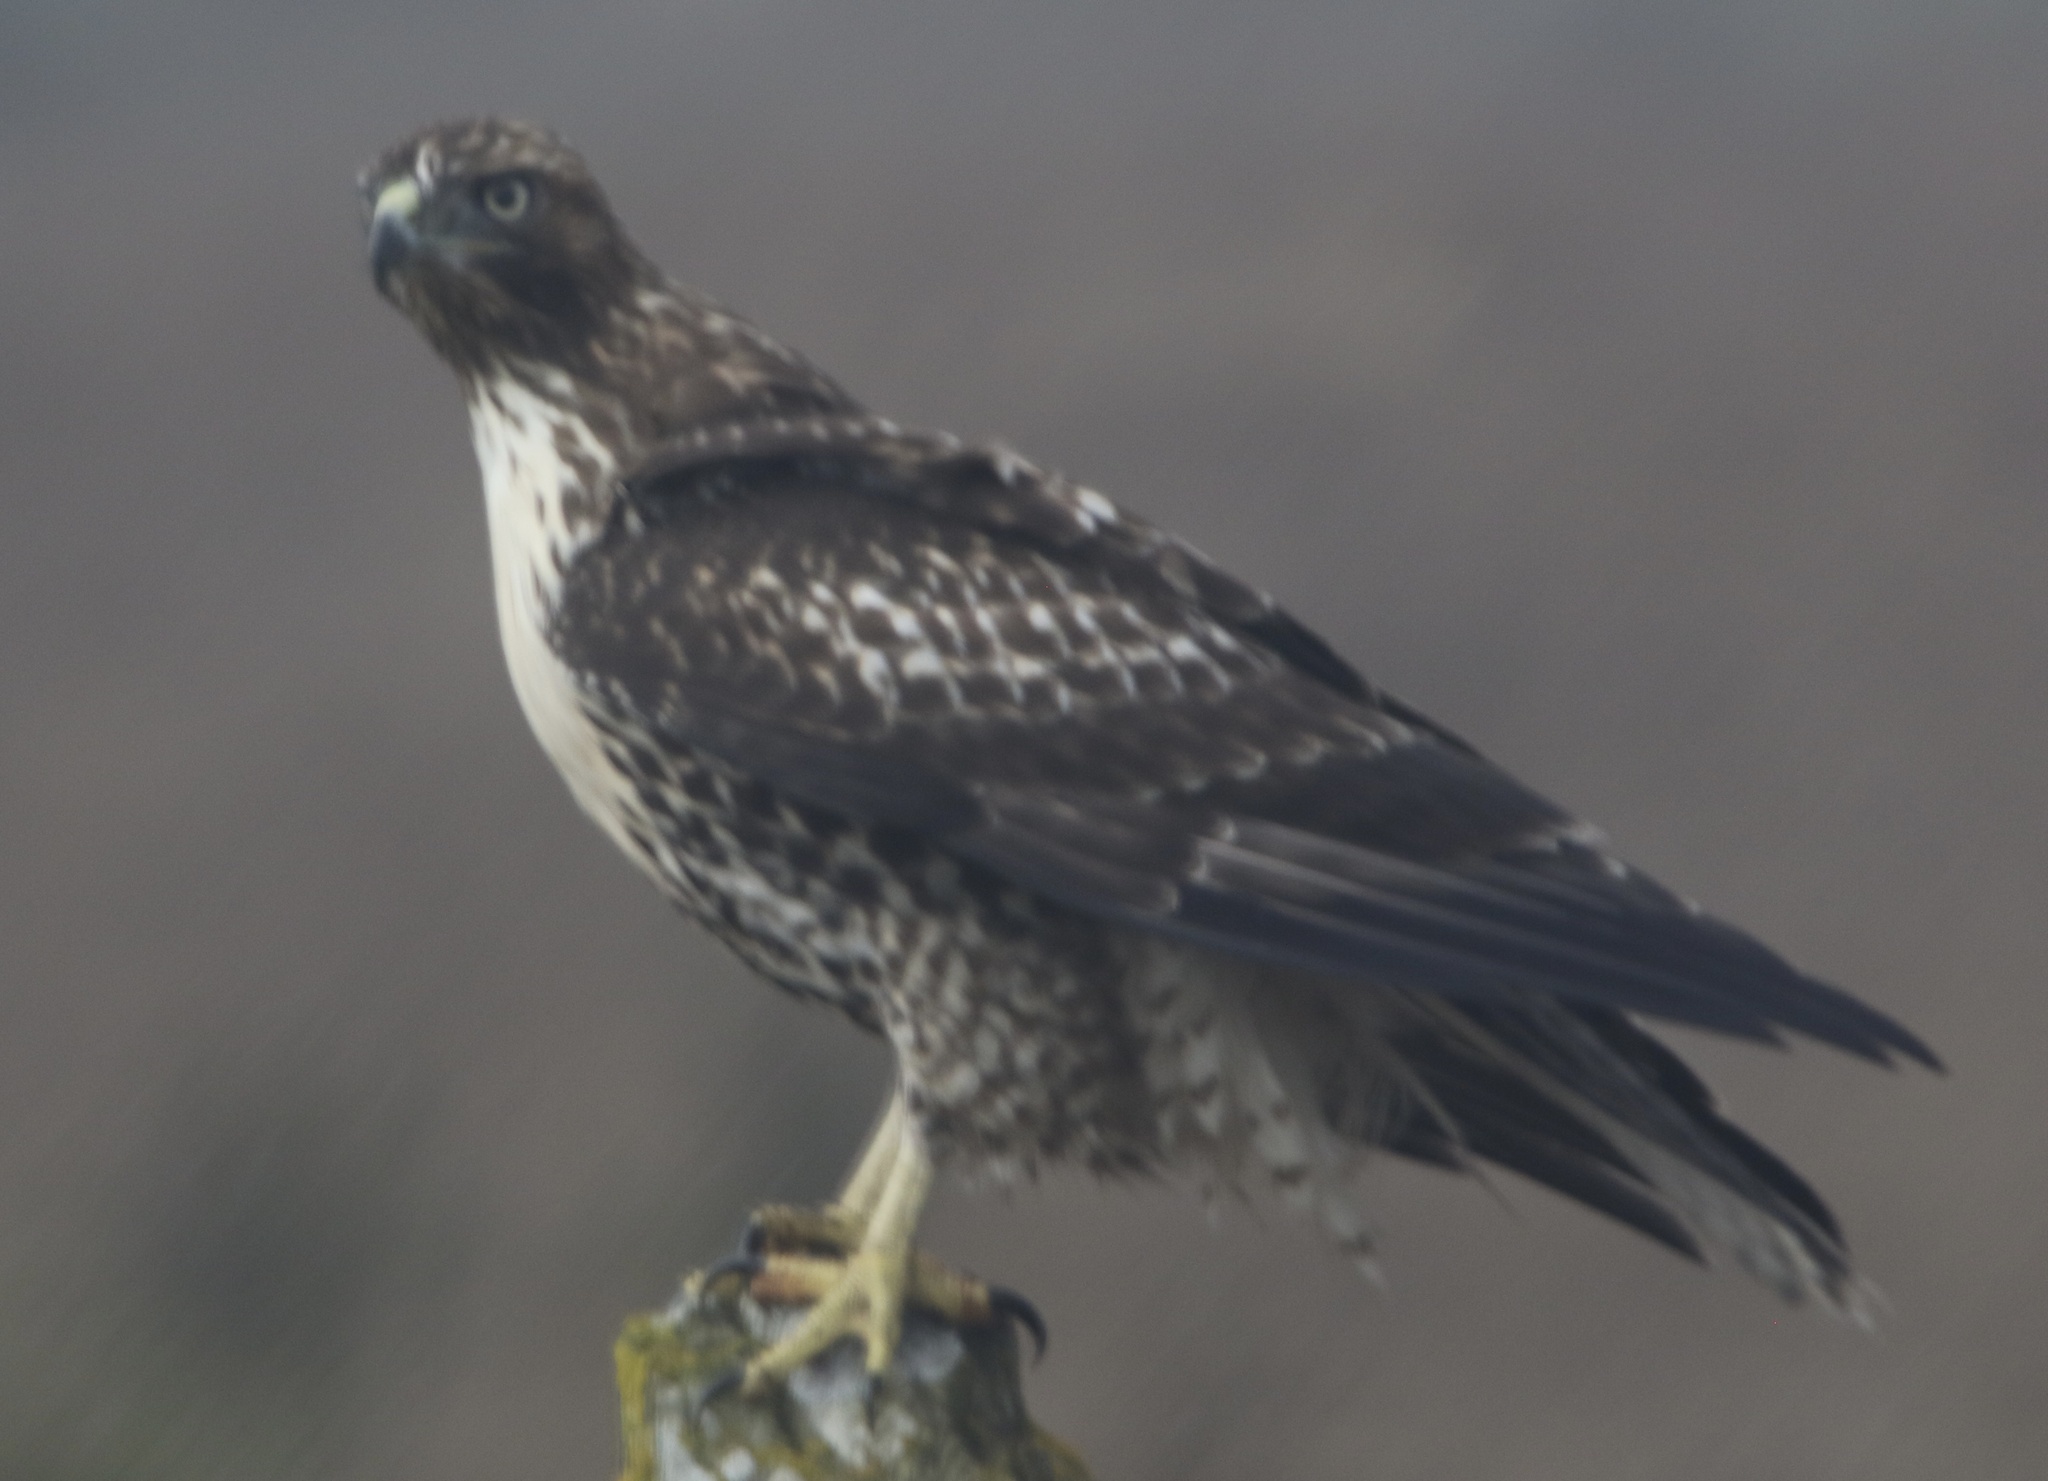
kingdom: Animalia
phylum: Chordata
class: Aves
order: Accipitriformes
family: Accipitridae
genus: Buteo
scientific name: Buteo jamaicensis
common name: Red-tailed hawk
